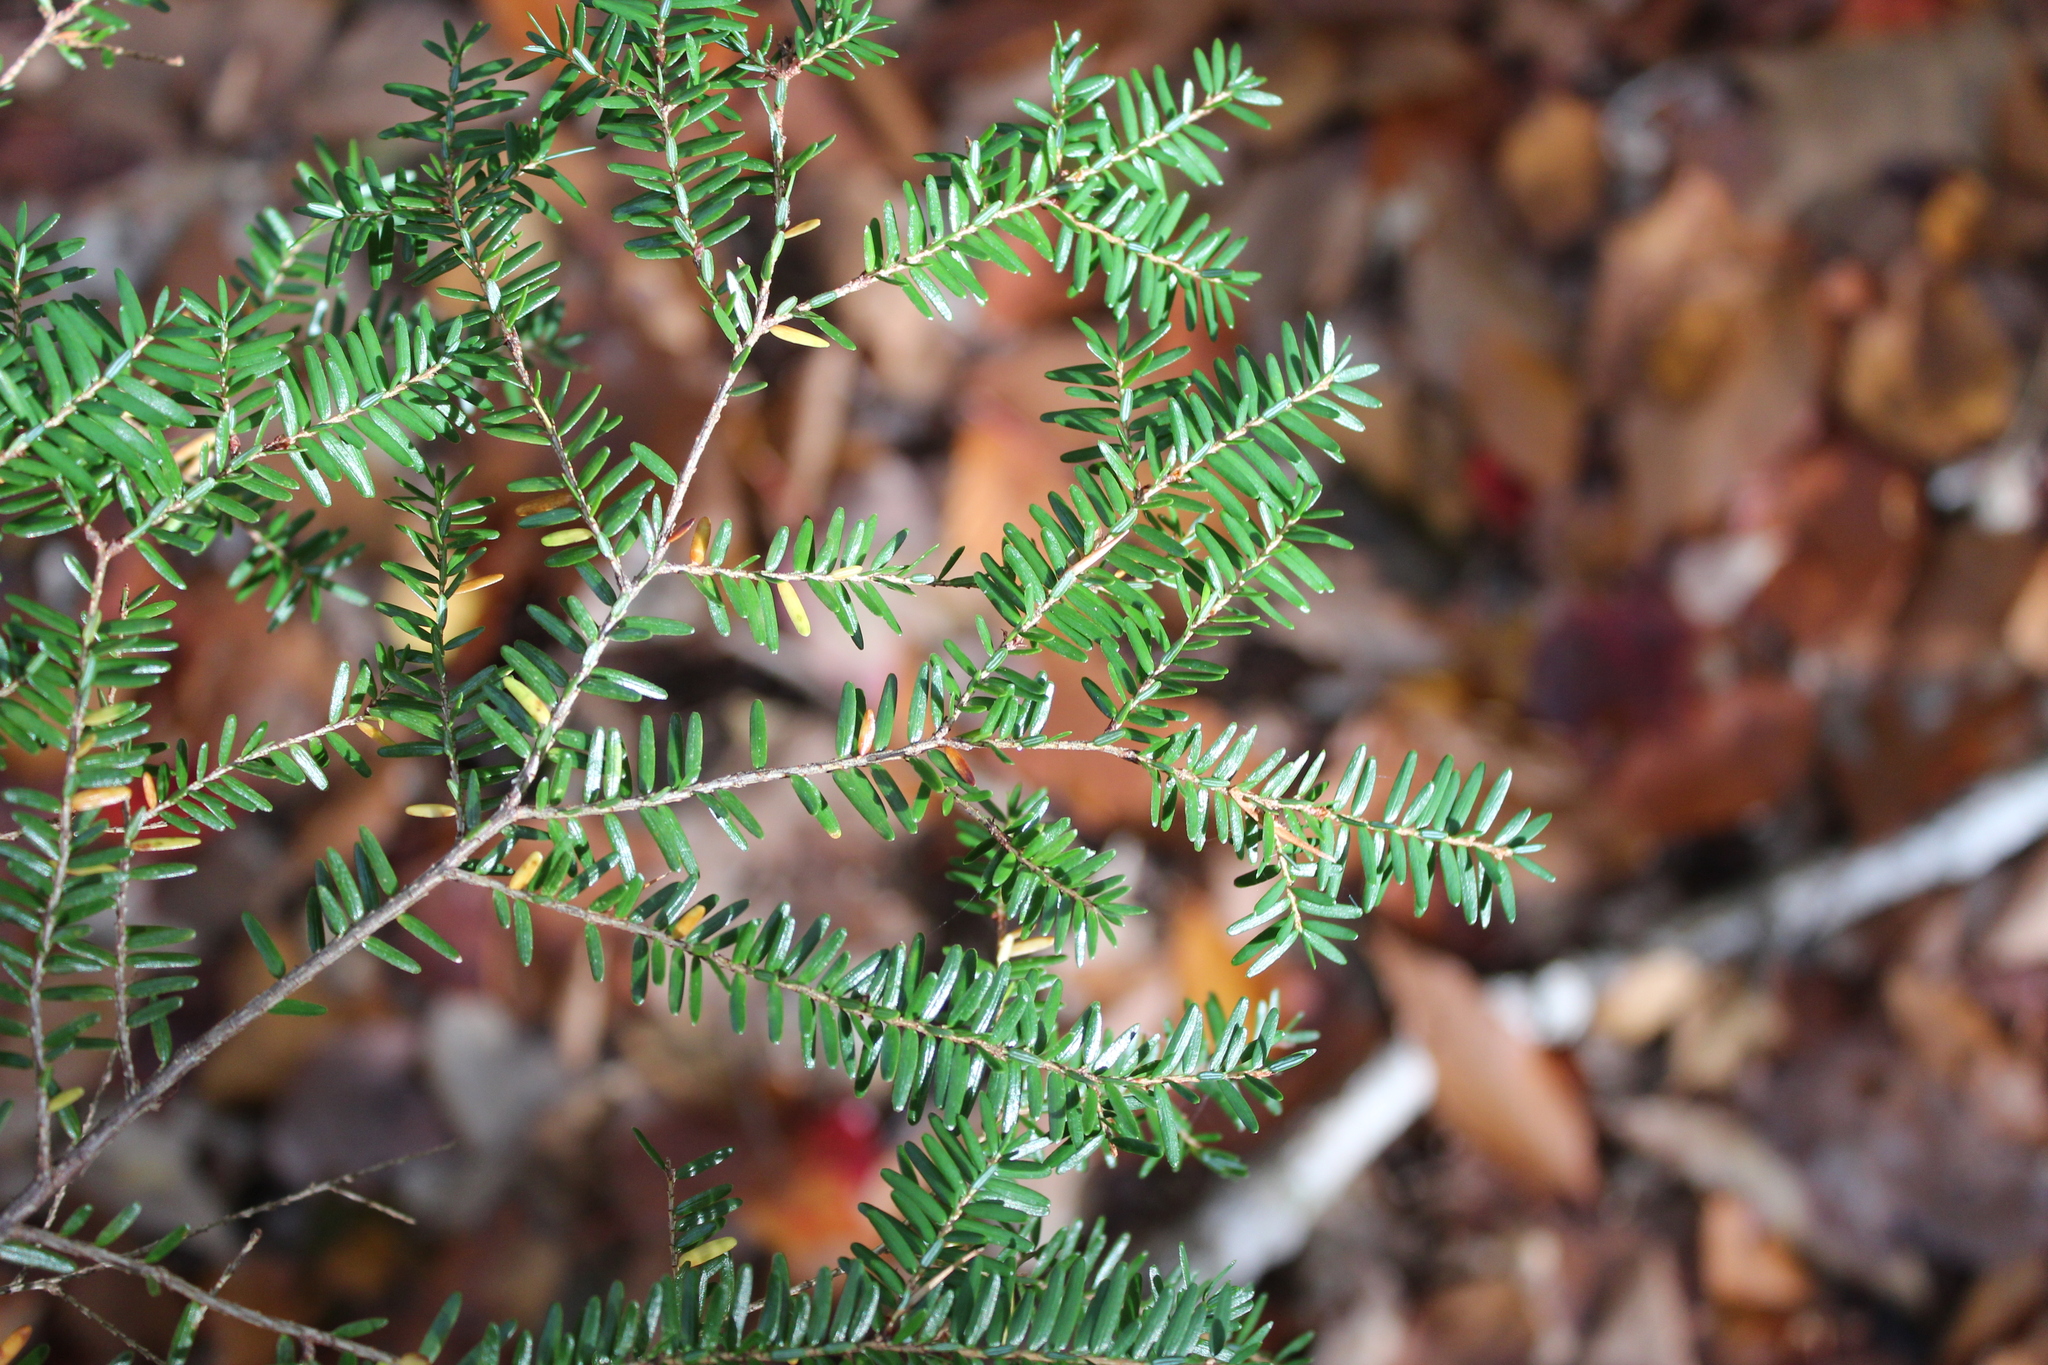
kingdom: Plantae
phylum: Tracheophyta
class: Pinopsida
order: Pinales
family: Pinaceae
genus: Tsuga
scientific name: Tsuga canadensis
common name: Eastern hemlock
